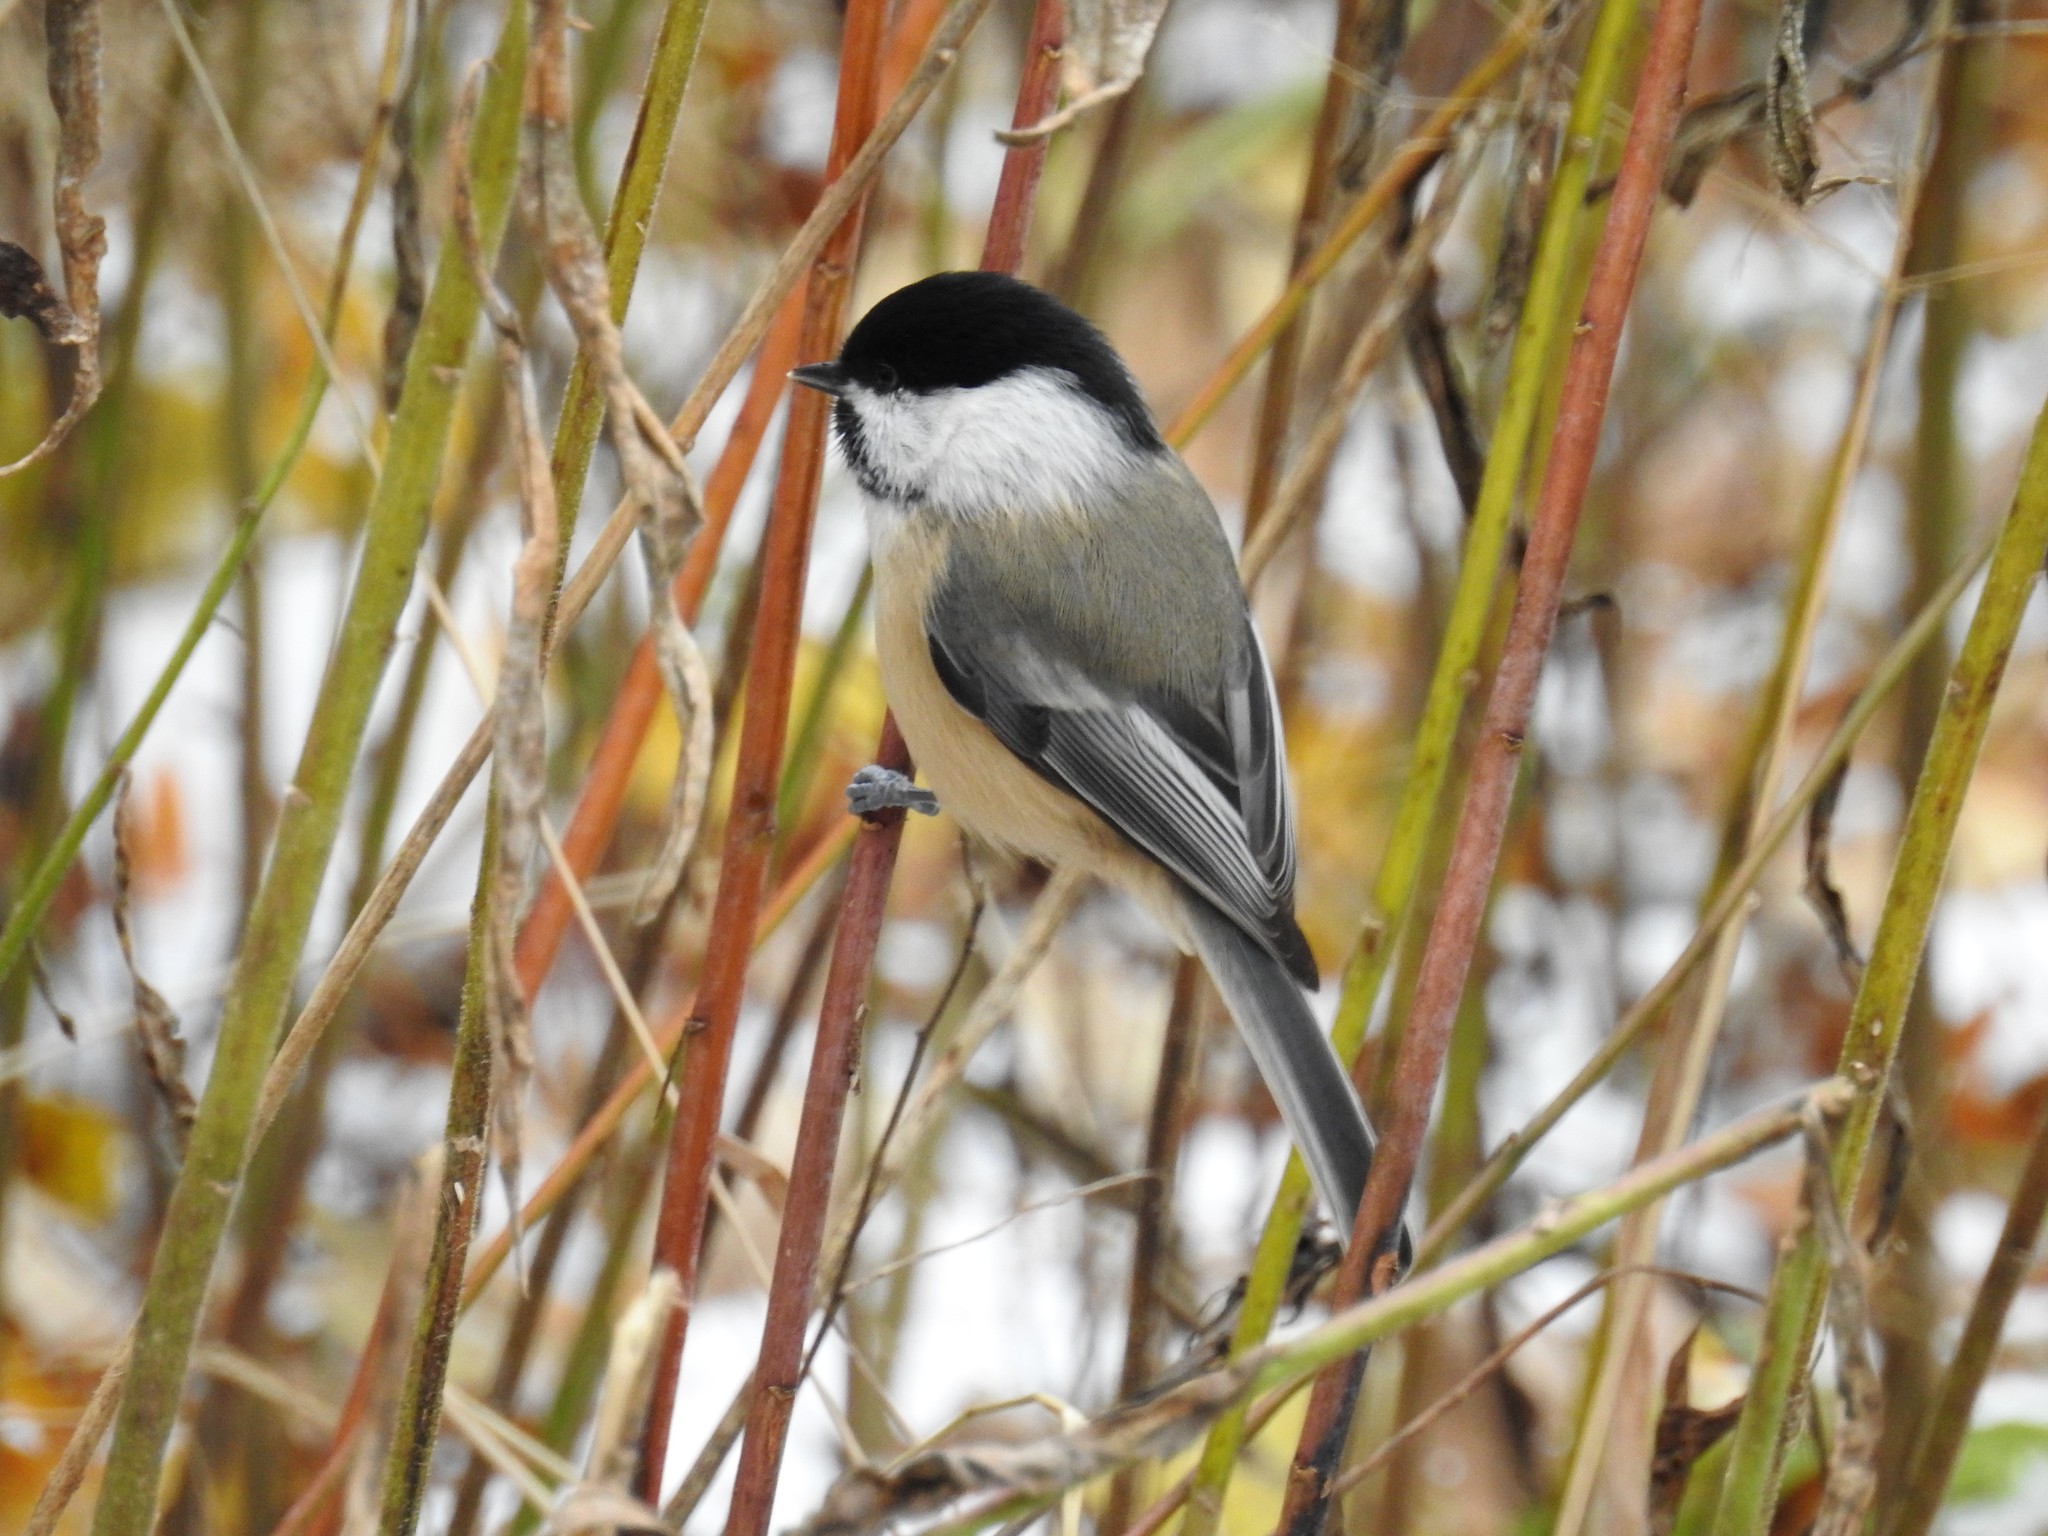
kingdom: Animalia
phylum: Chordata
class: Aves
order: Passeriformes
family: Paridae
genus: Poecile
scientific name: Poecile atricapillus
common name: Black-capped chickadee
